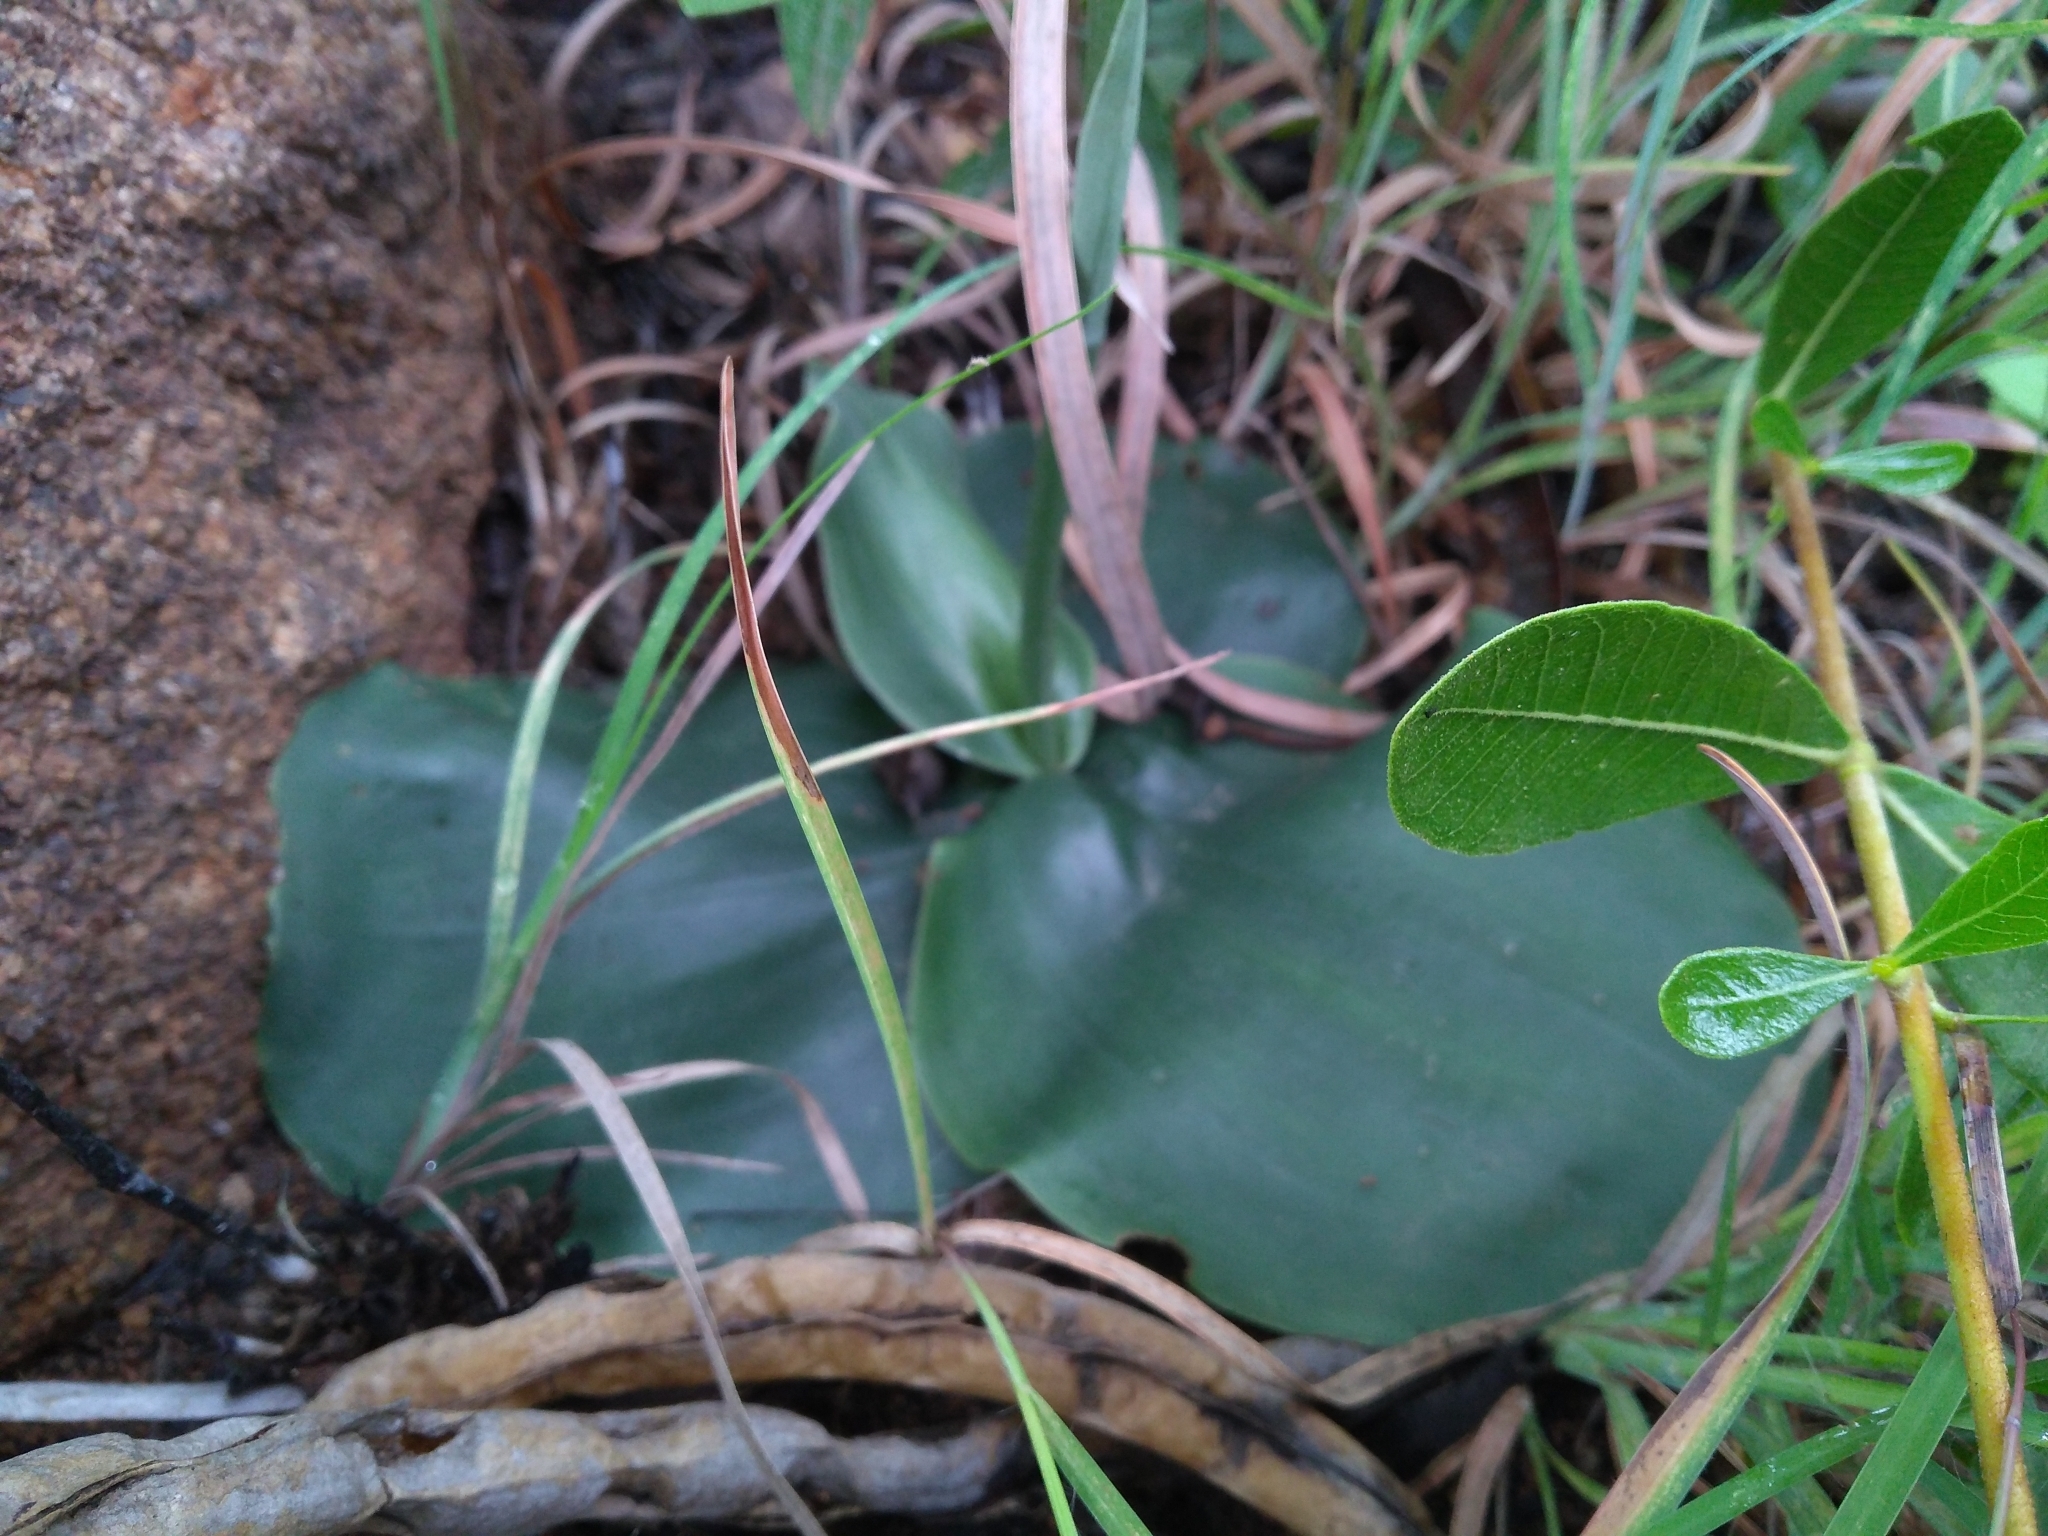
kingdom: Plantae
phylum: Tracheophyta
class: Liliopsida
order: Asparagales
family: Orchidaceae
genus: Habenaria
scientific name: Habenaria roxburghii
